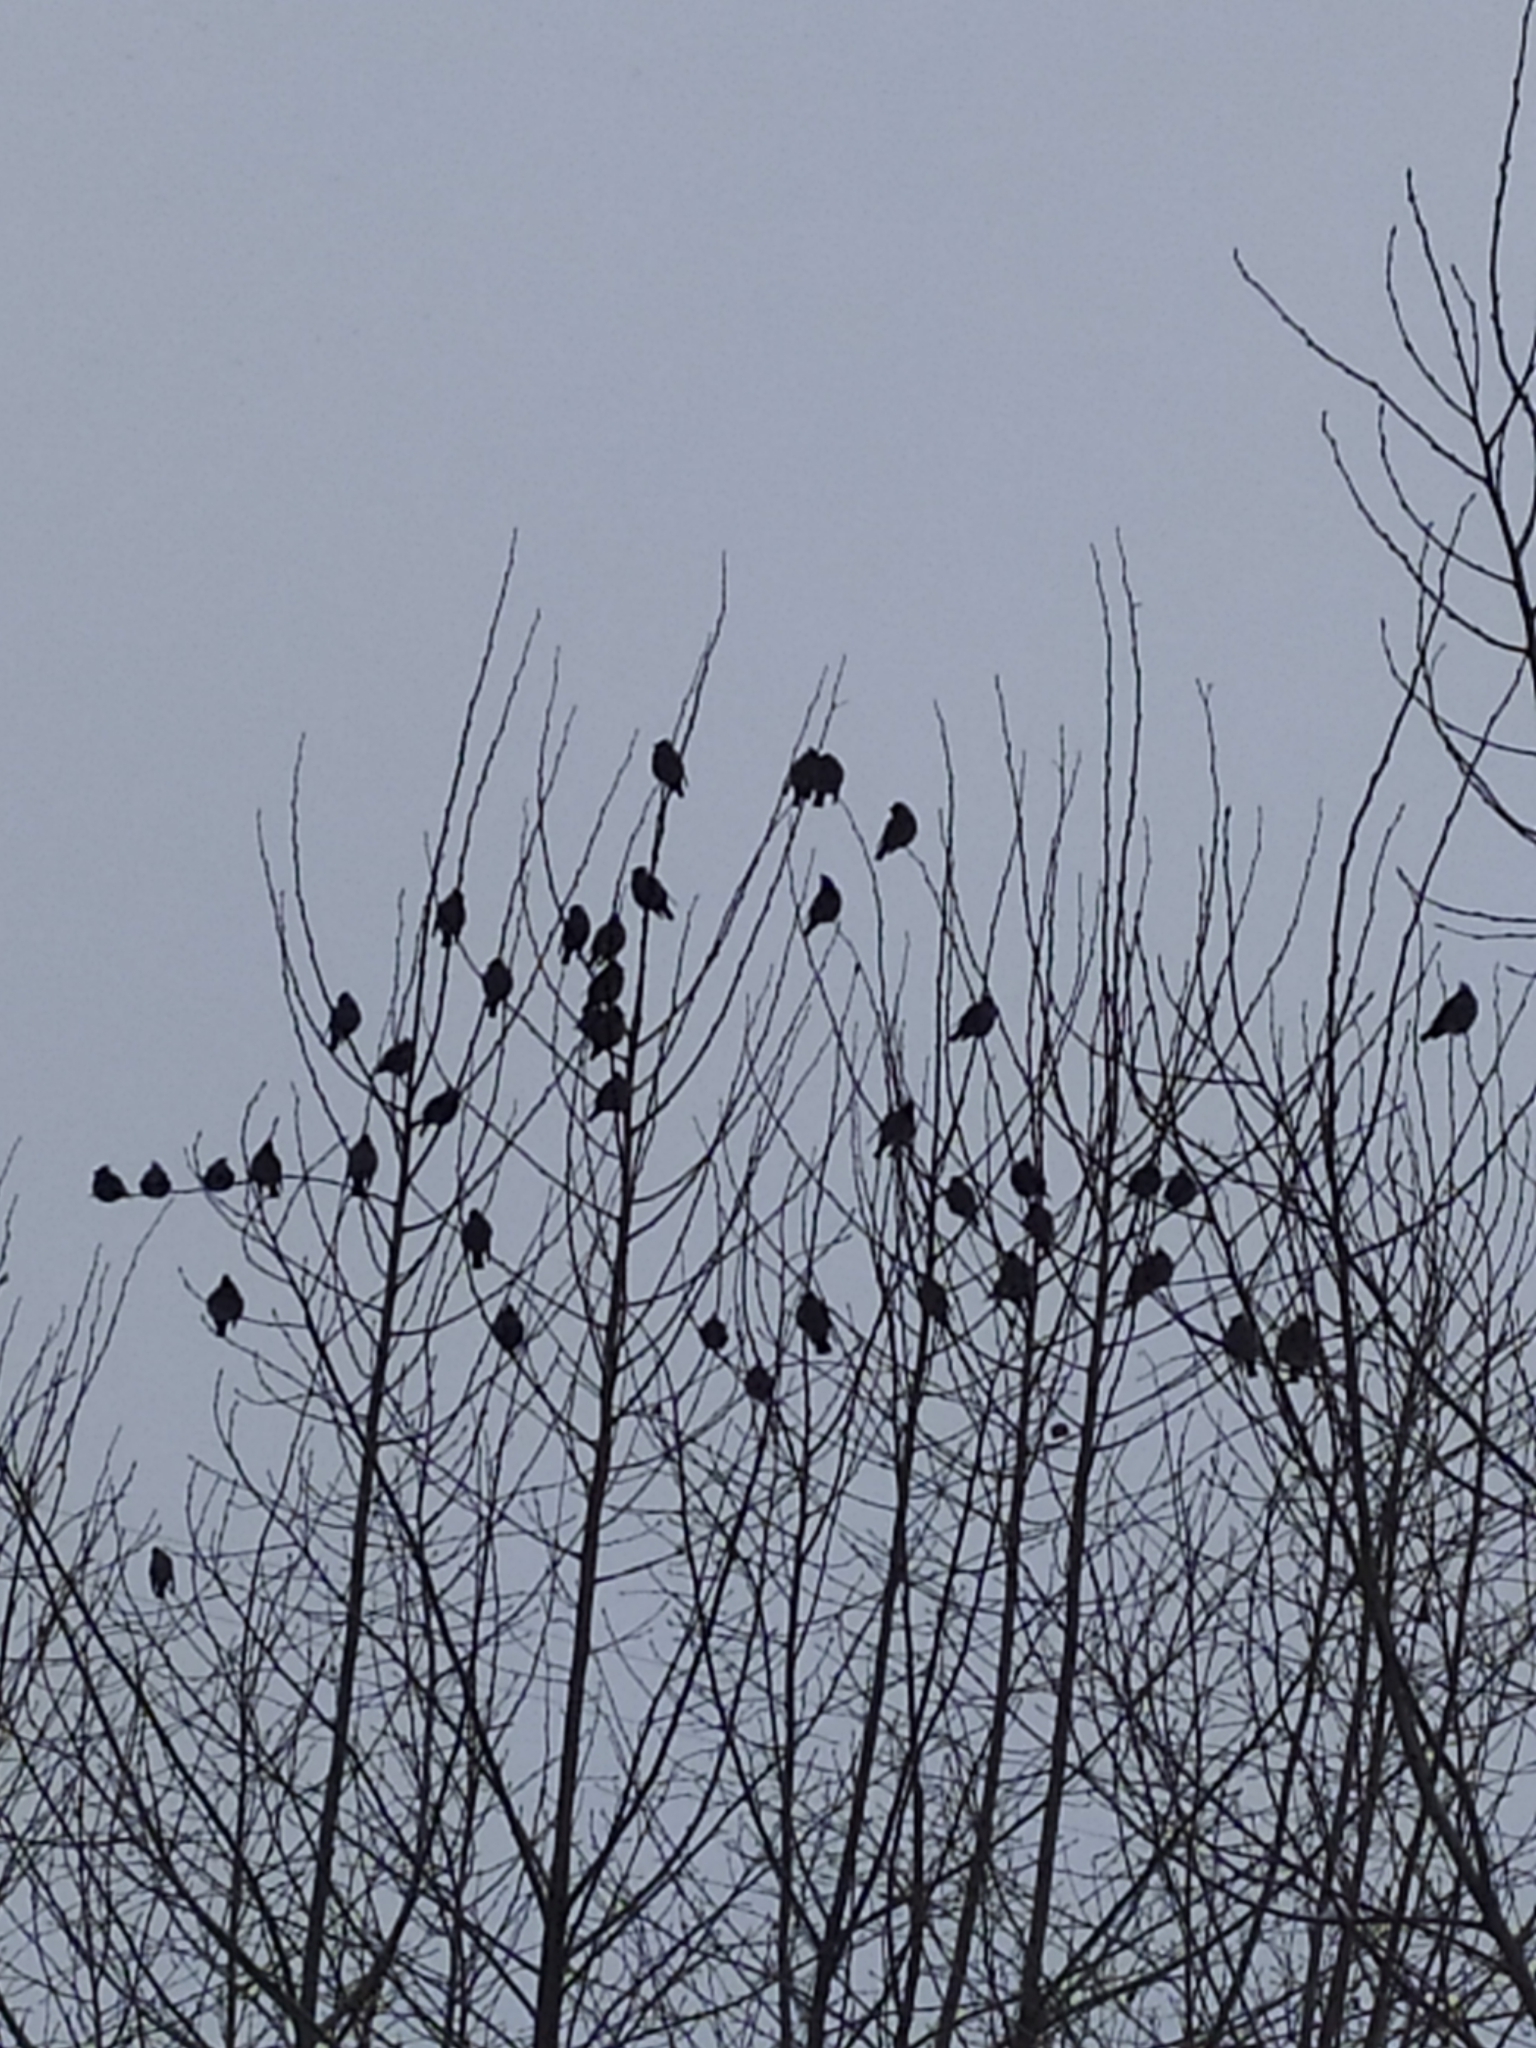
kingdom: Animalia
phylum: Chordata
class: Aves
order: Passeriformes
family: Bombycillidae
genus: Bombycilla
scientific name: Bombycilla garrulus
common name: Bohemian waxwing
